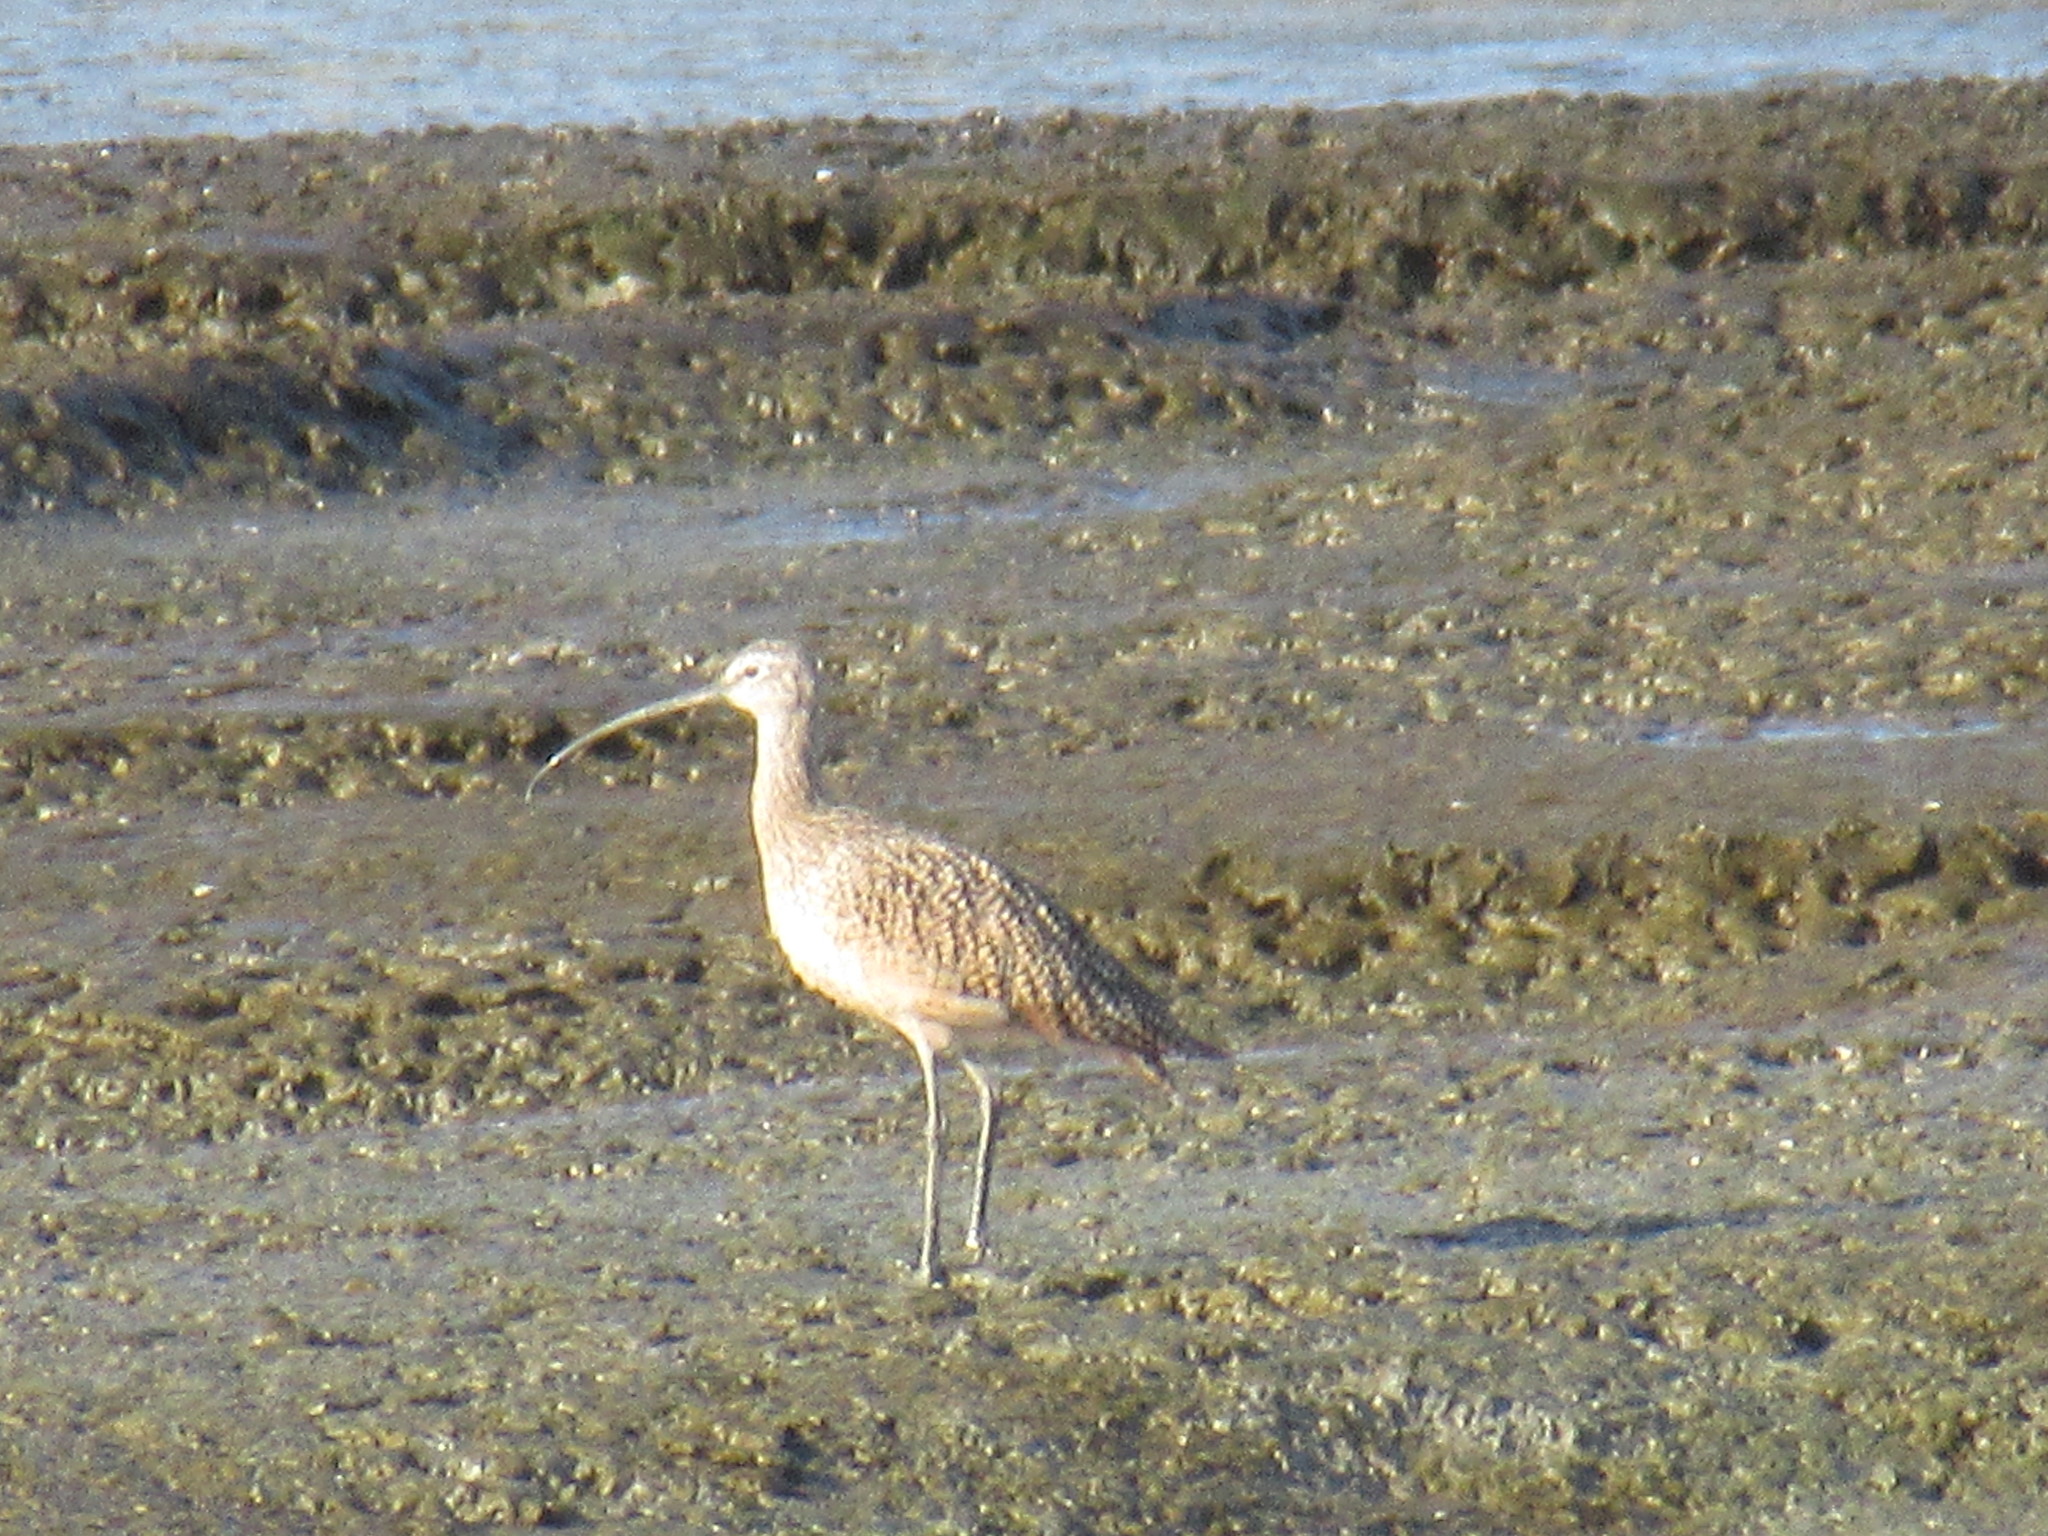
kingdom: Animalia
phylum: Chordata
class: Aves
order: Charadriiformes
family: Scolopacidae
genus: Numenius
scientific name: Numenius americanus
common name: Long-billed curlew
